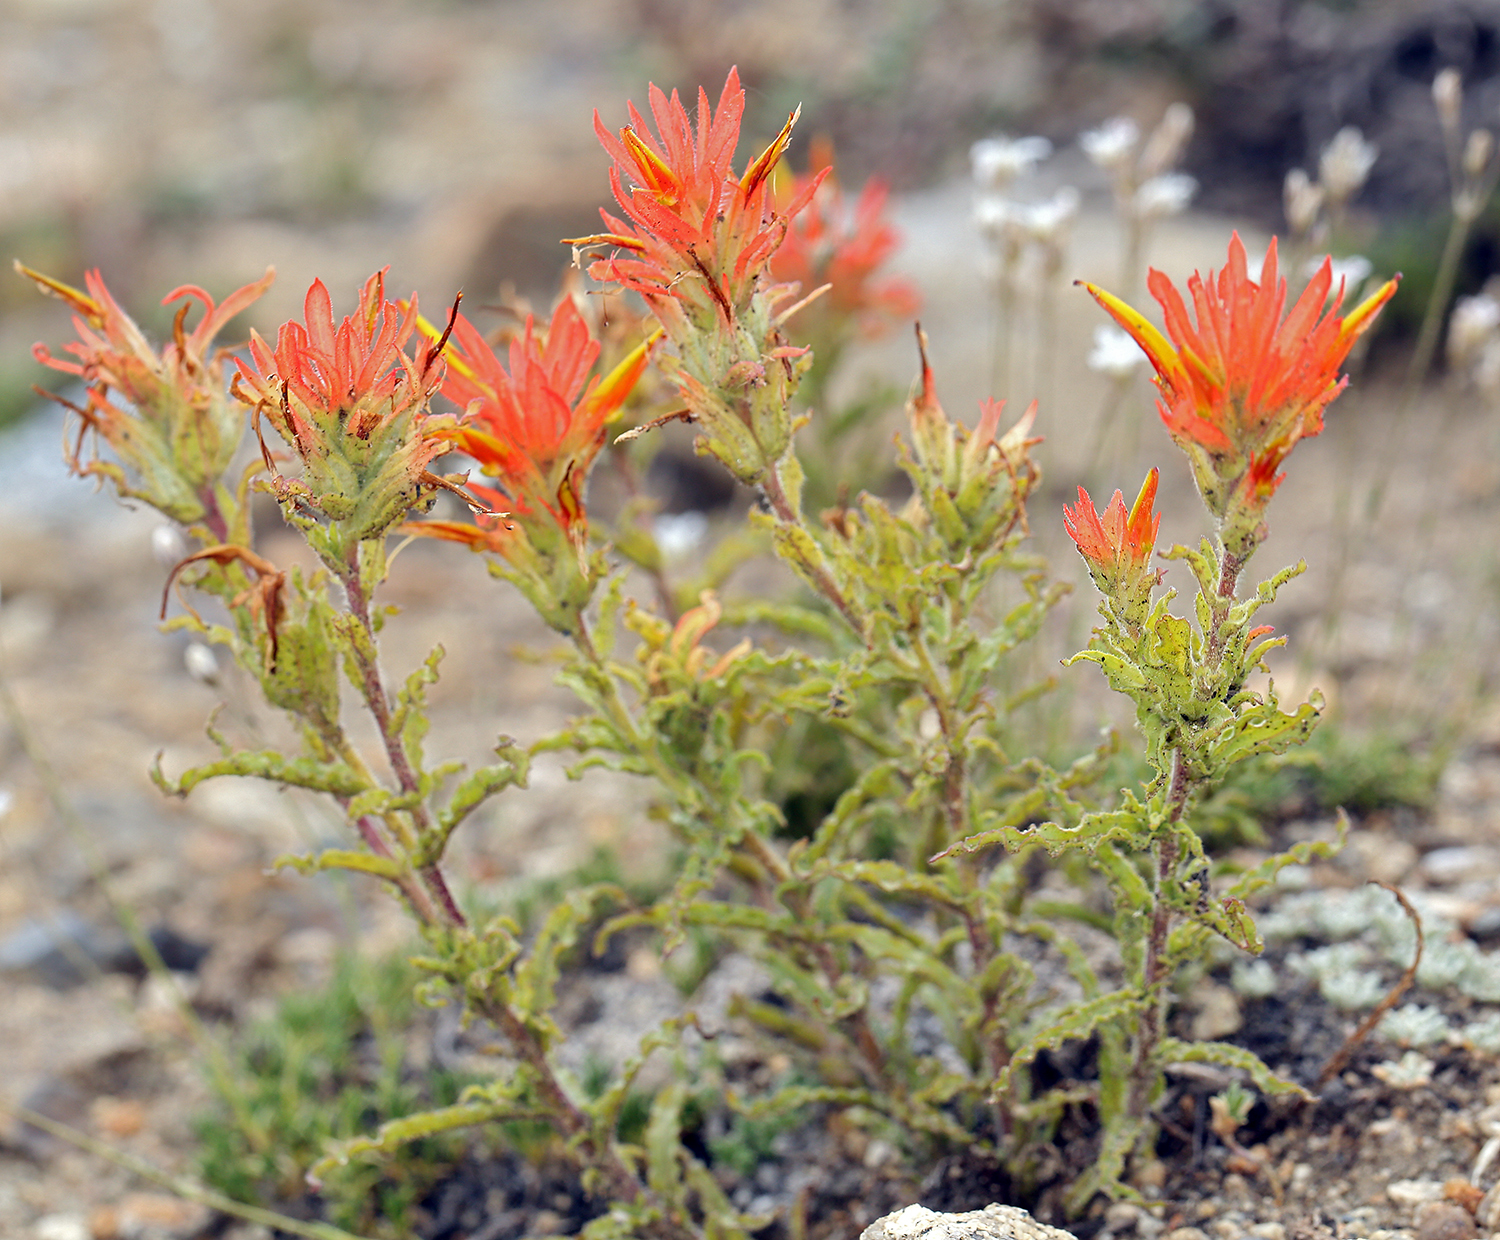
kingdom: Plantae
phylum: Tracheophyta
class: Magnoliopsida
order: Lamiales
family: Orobanchaceae
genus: Castilleja
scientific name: Castilleja applegatei
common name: Wavy-leaf paintbrush
